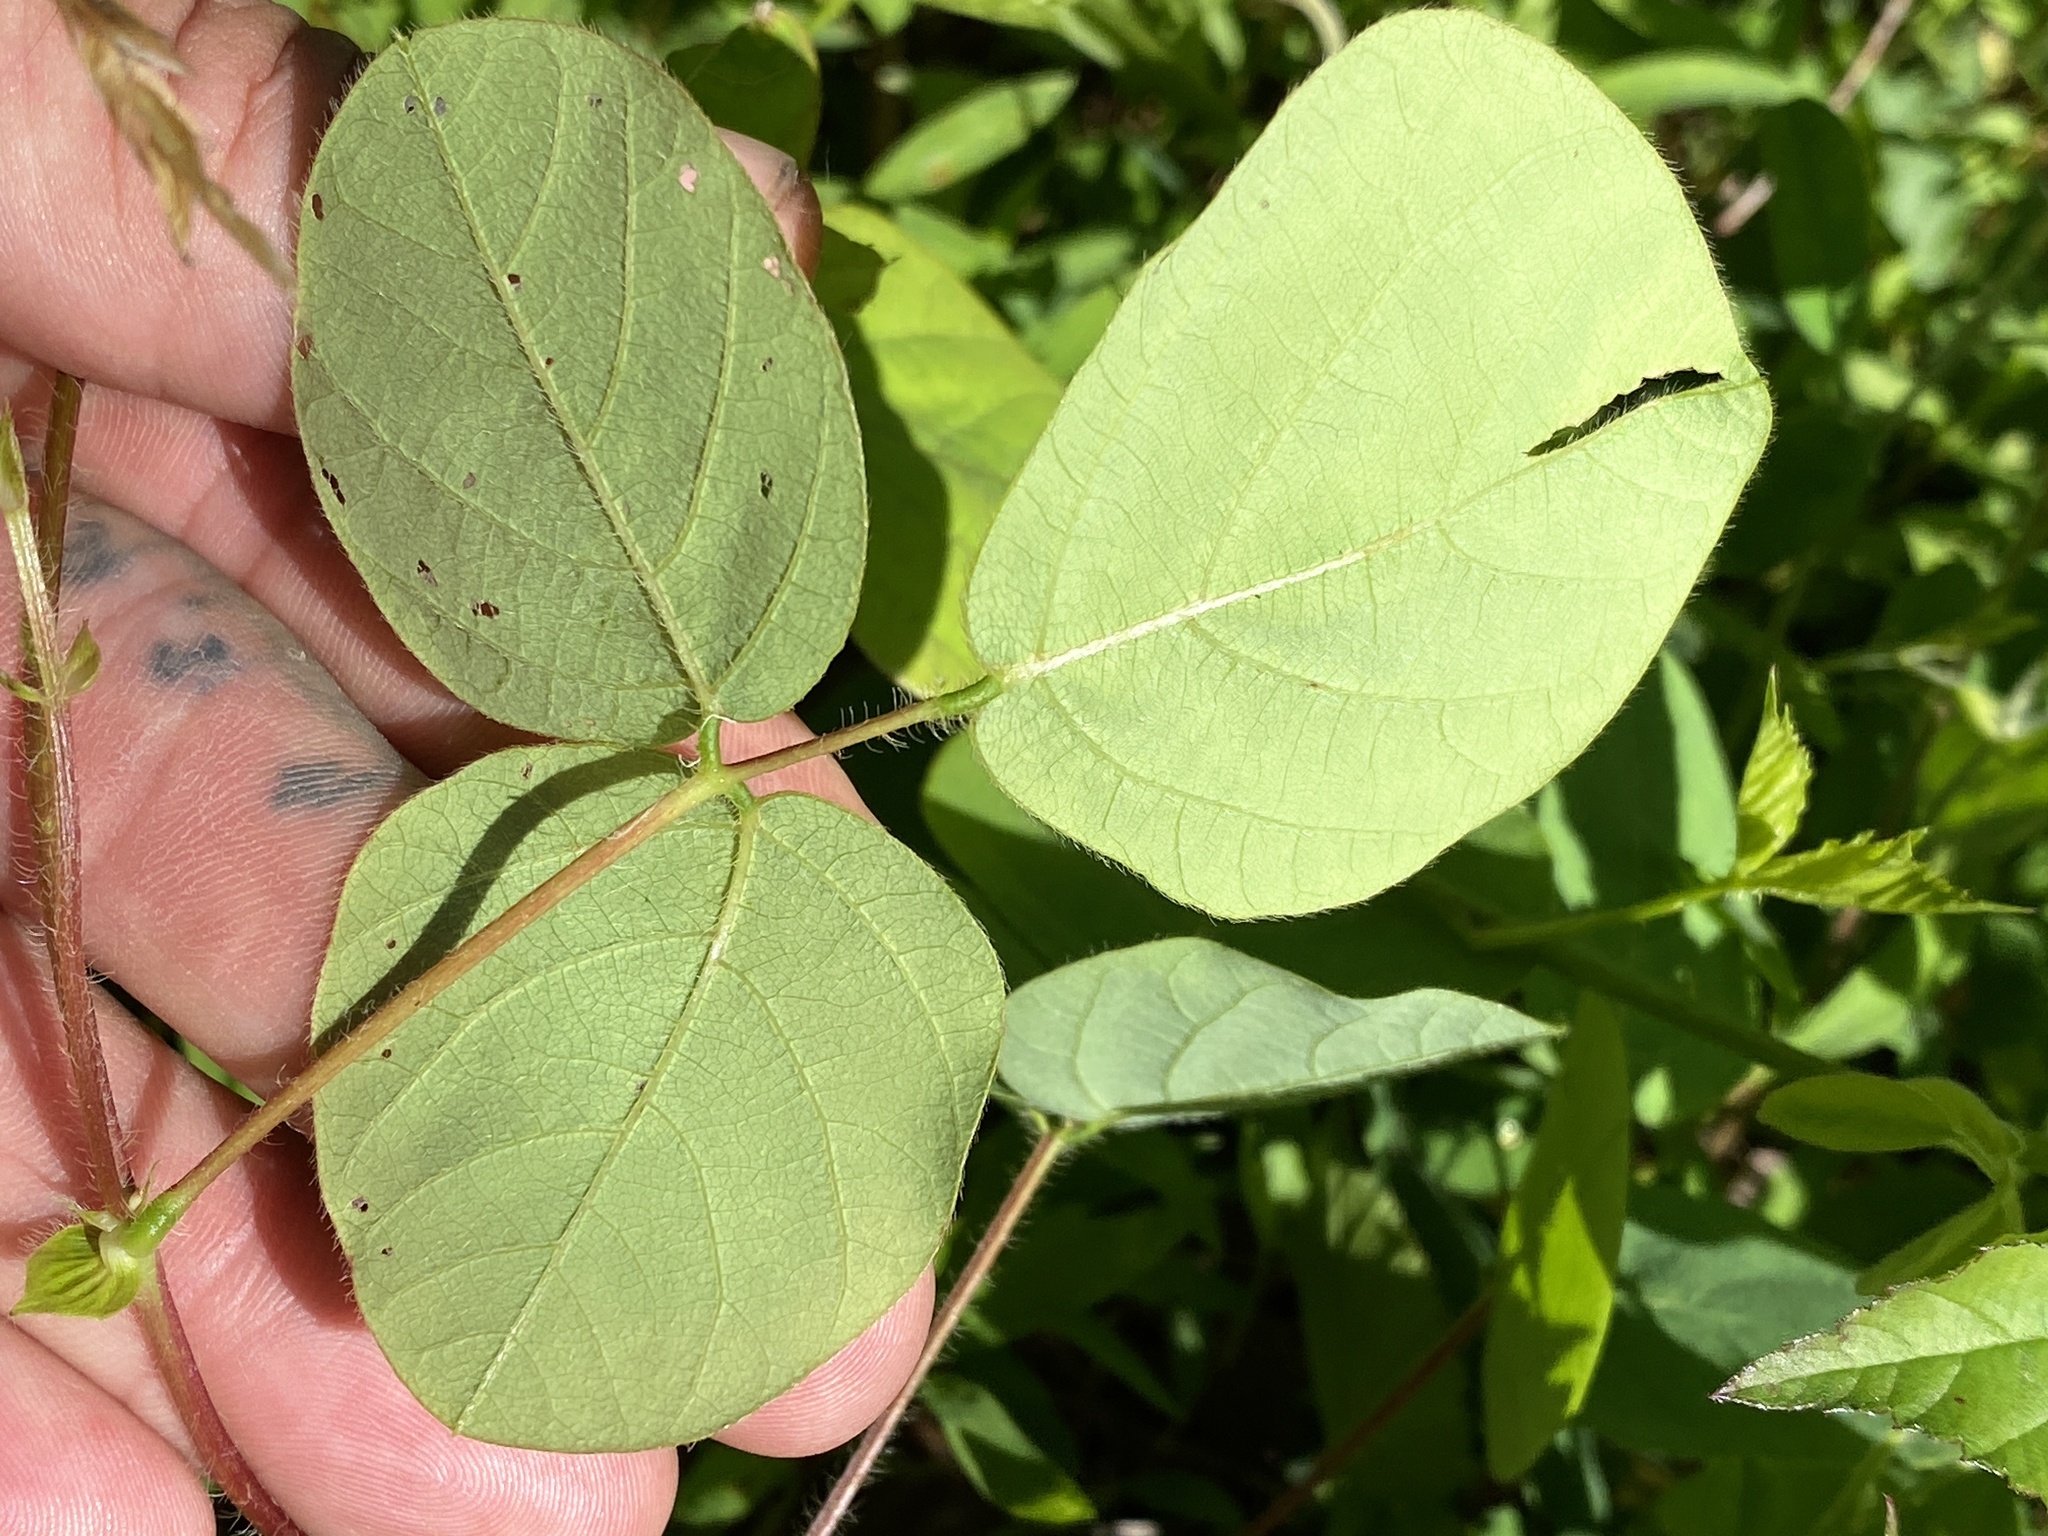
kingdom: Plantae
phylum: Tracheophyta
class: Magnoliopsida
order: Fabales
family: Fabaceae
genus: Desmodium
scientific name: Desmodium rotundifolium
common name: Dollarleaf
